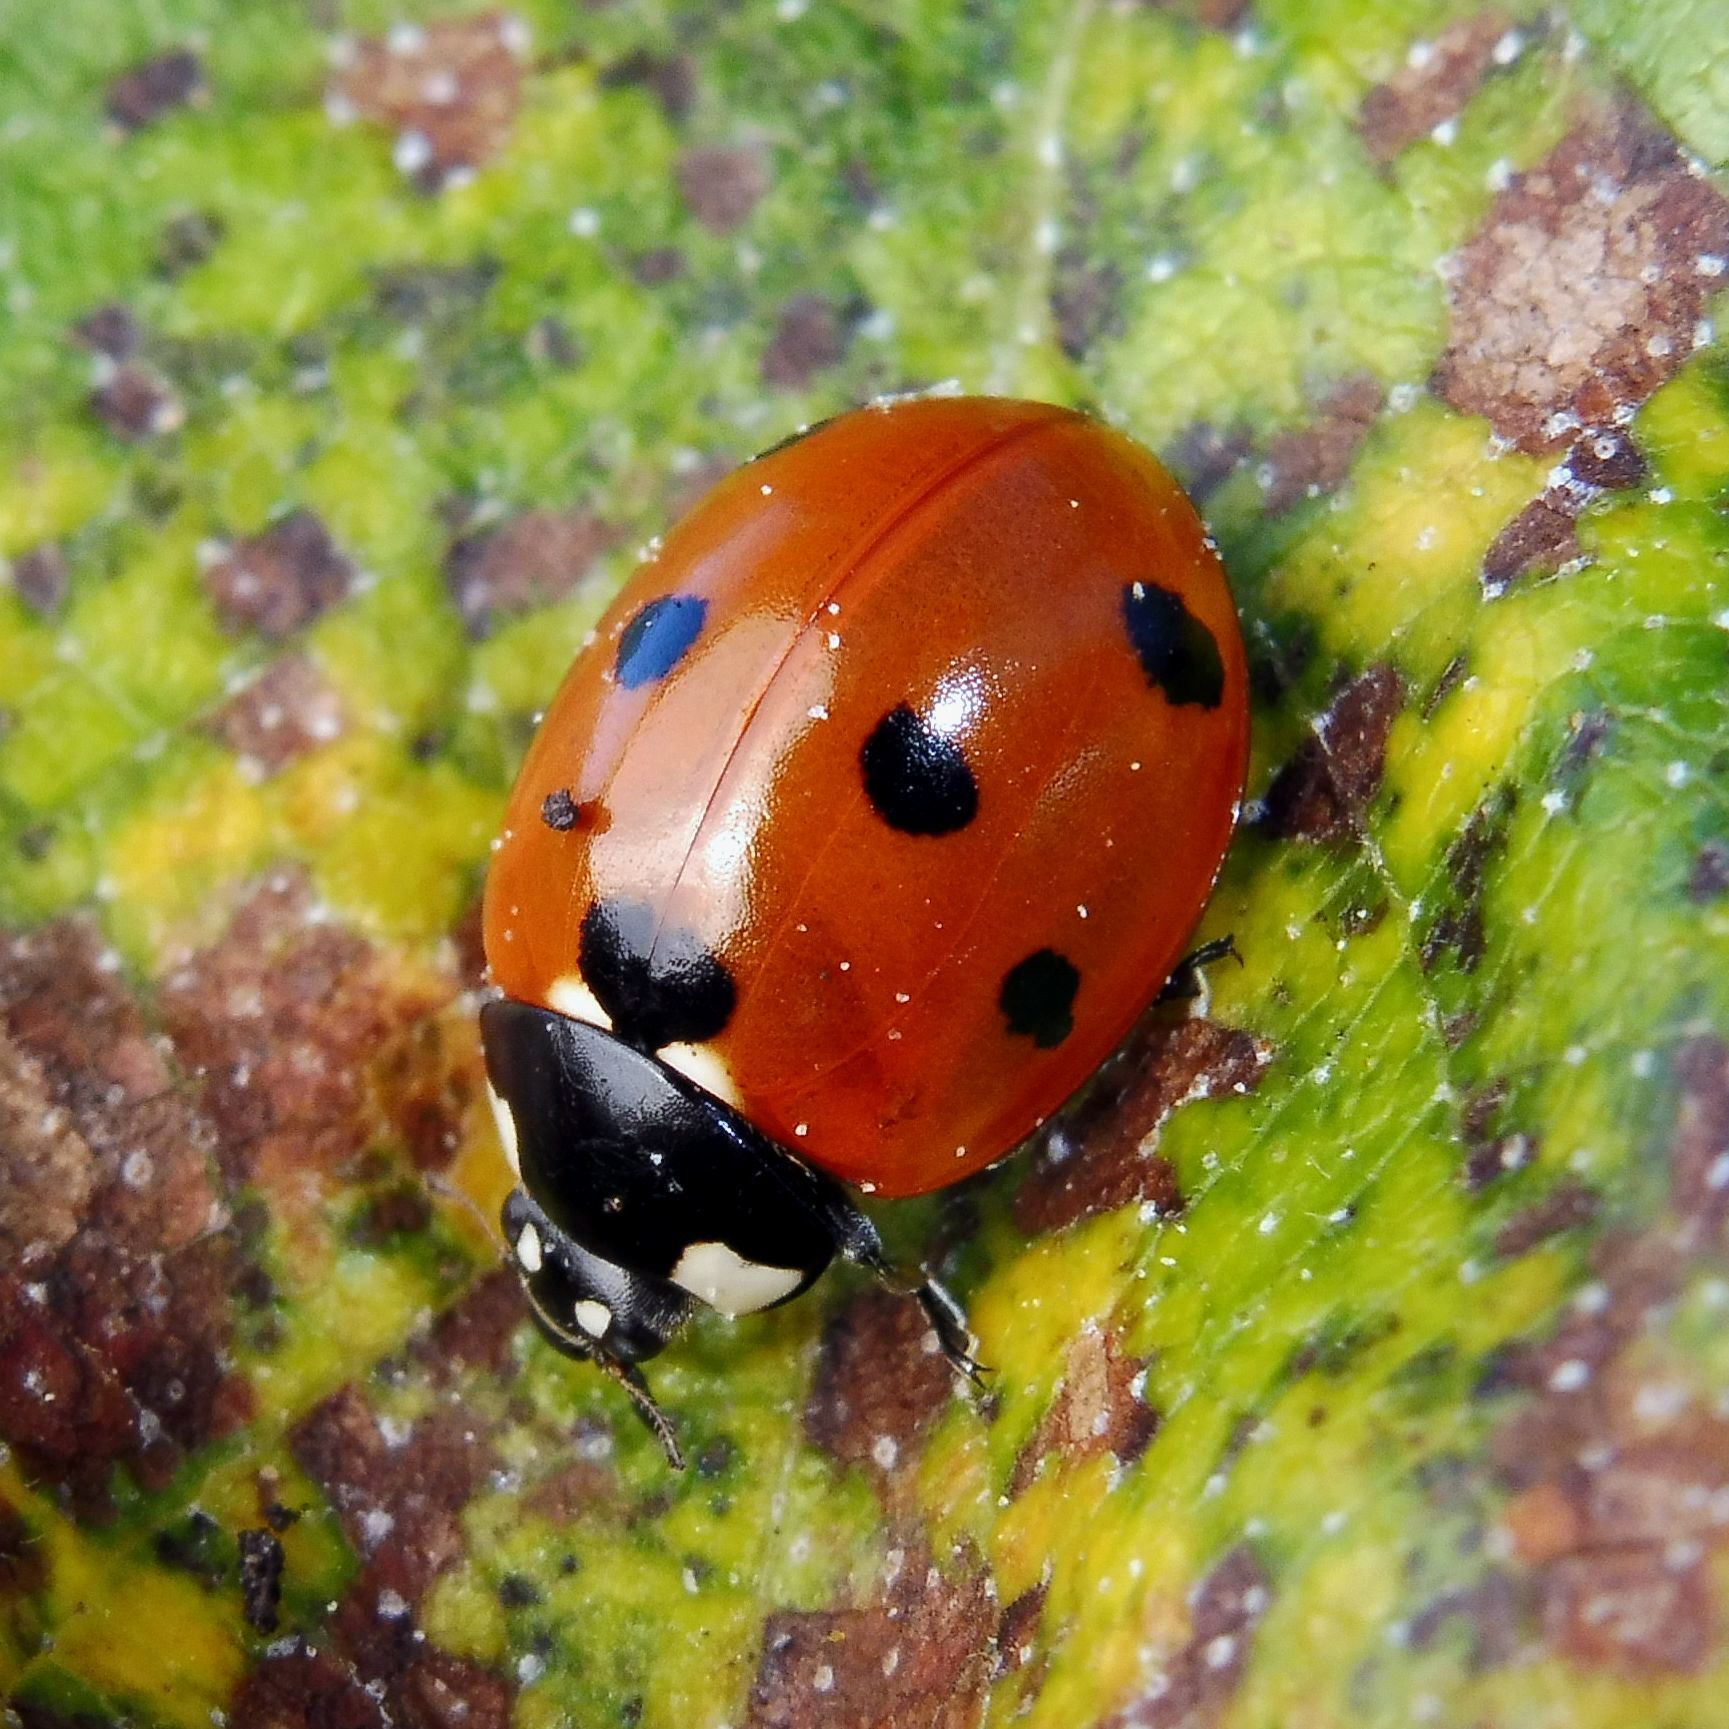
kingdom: Animalia
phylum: Arthropoda
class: Insecta
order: Coleoptera
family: Coccinellidae
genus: Coccinella
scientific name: Coccinella septempunctata
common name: Sevenspotted lady beetle
